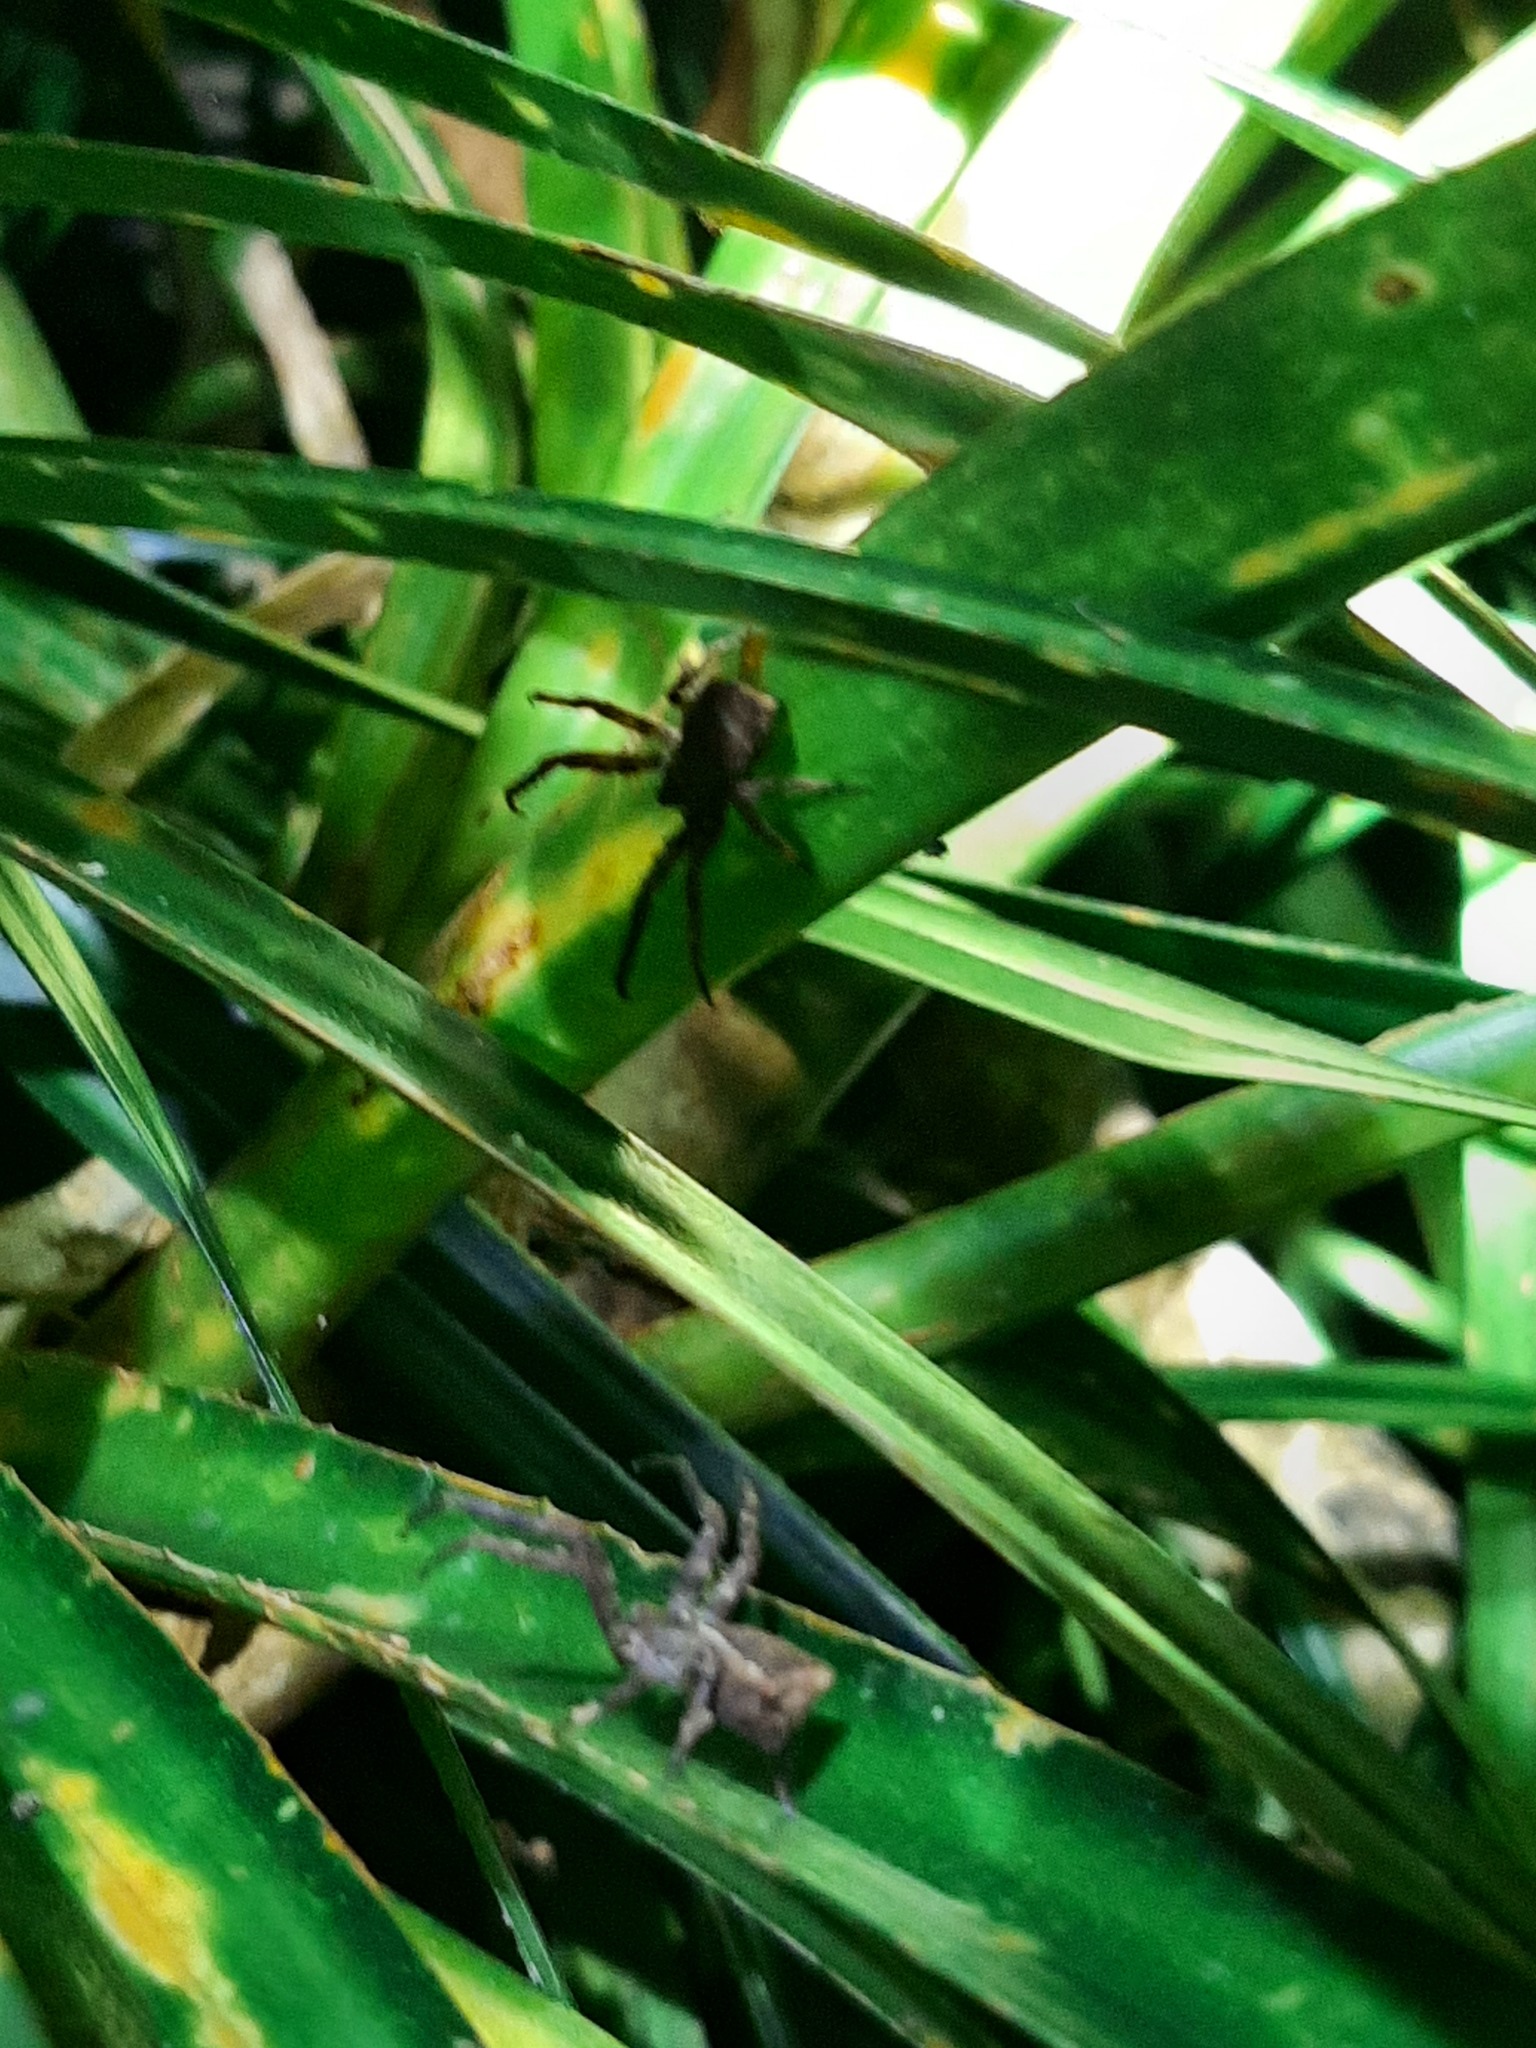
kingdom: Animalia
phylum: Arthropoda
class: Arachnida
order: Araneae
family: Thomisidae
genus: Sidymella
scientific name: Sidymella angularis
